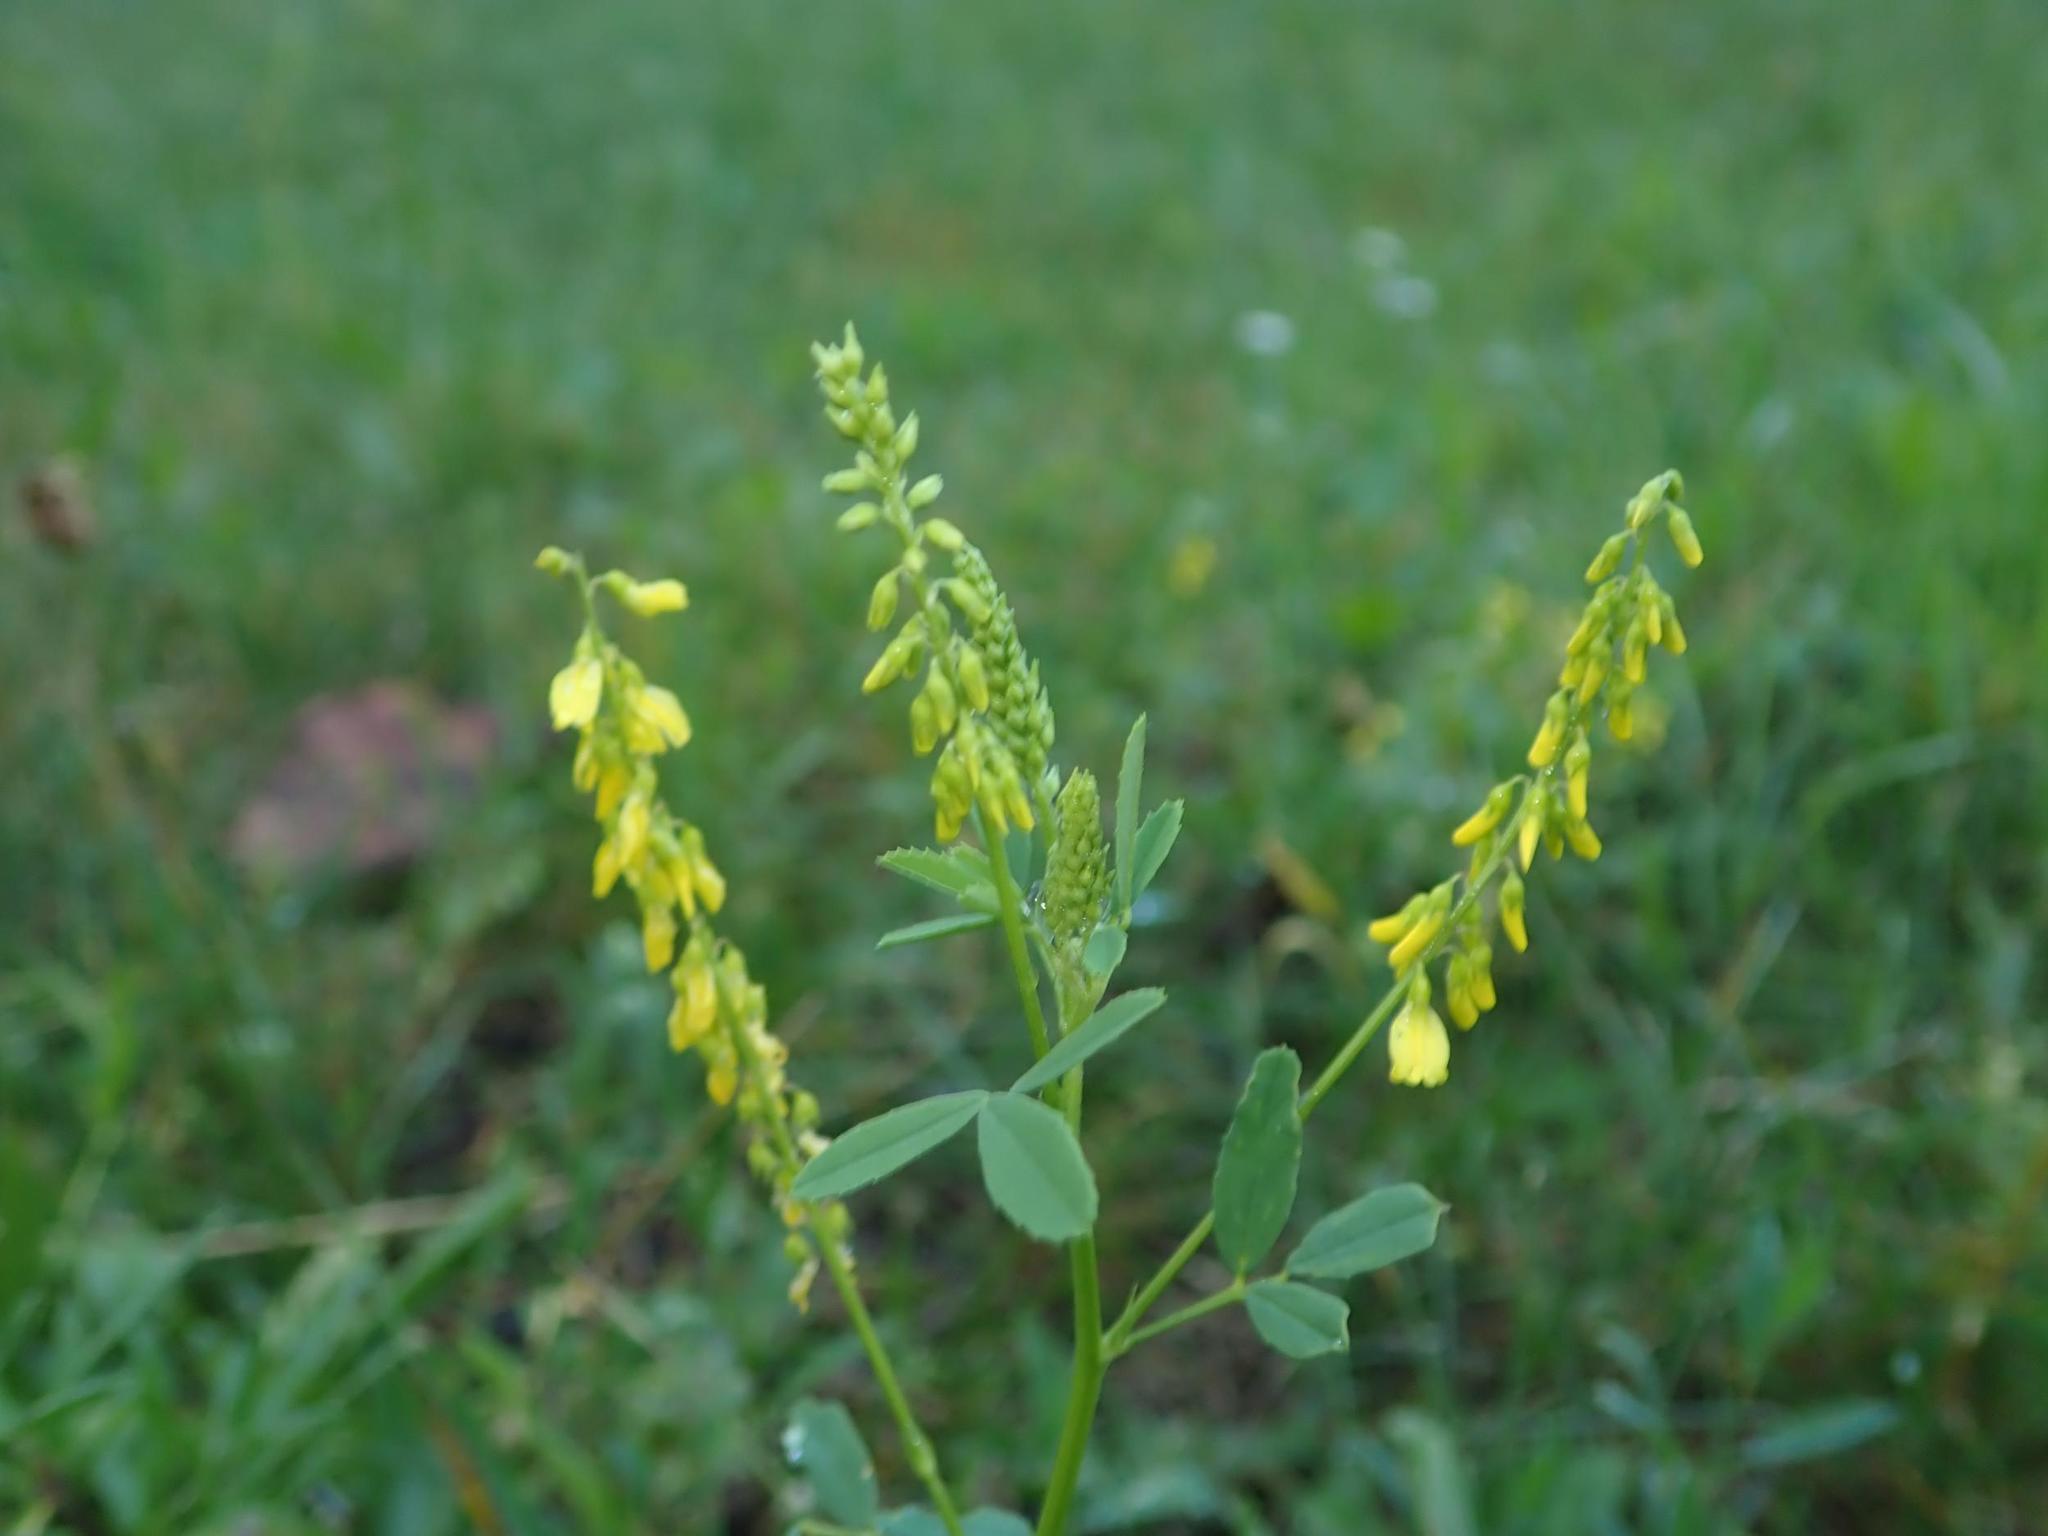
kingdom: Plantae
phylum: Tracheophyta
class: Magnoliopsida
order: Fabales
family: Fabaceae
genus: Melilotus
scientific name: Melilotus officinalis
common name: Sweetclover
